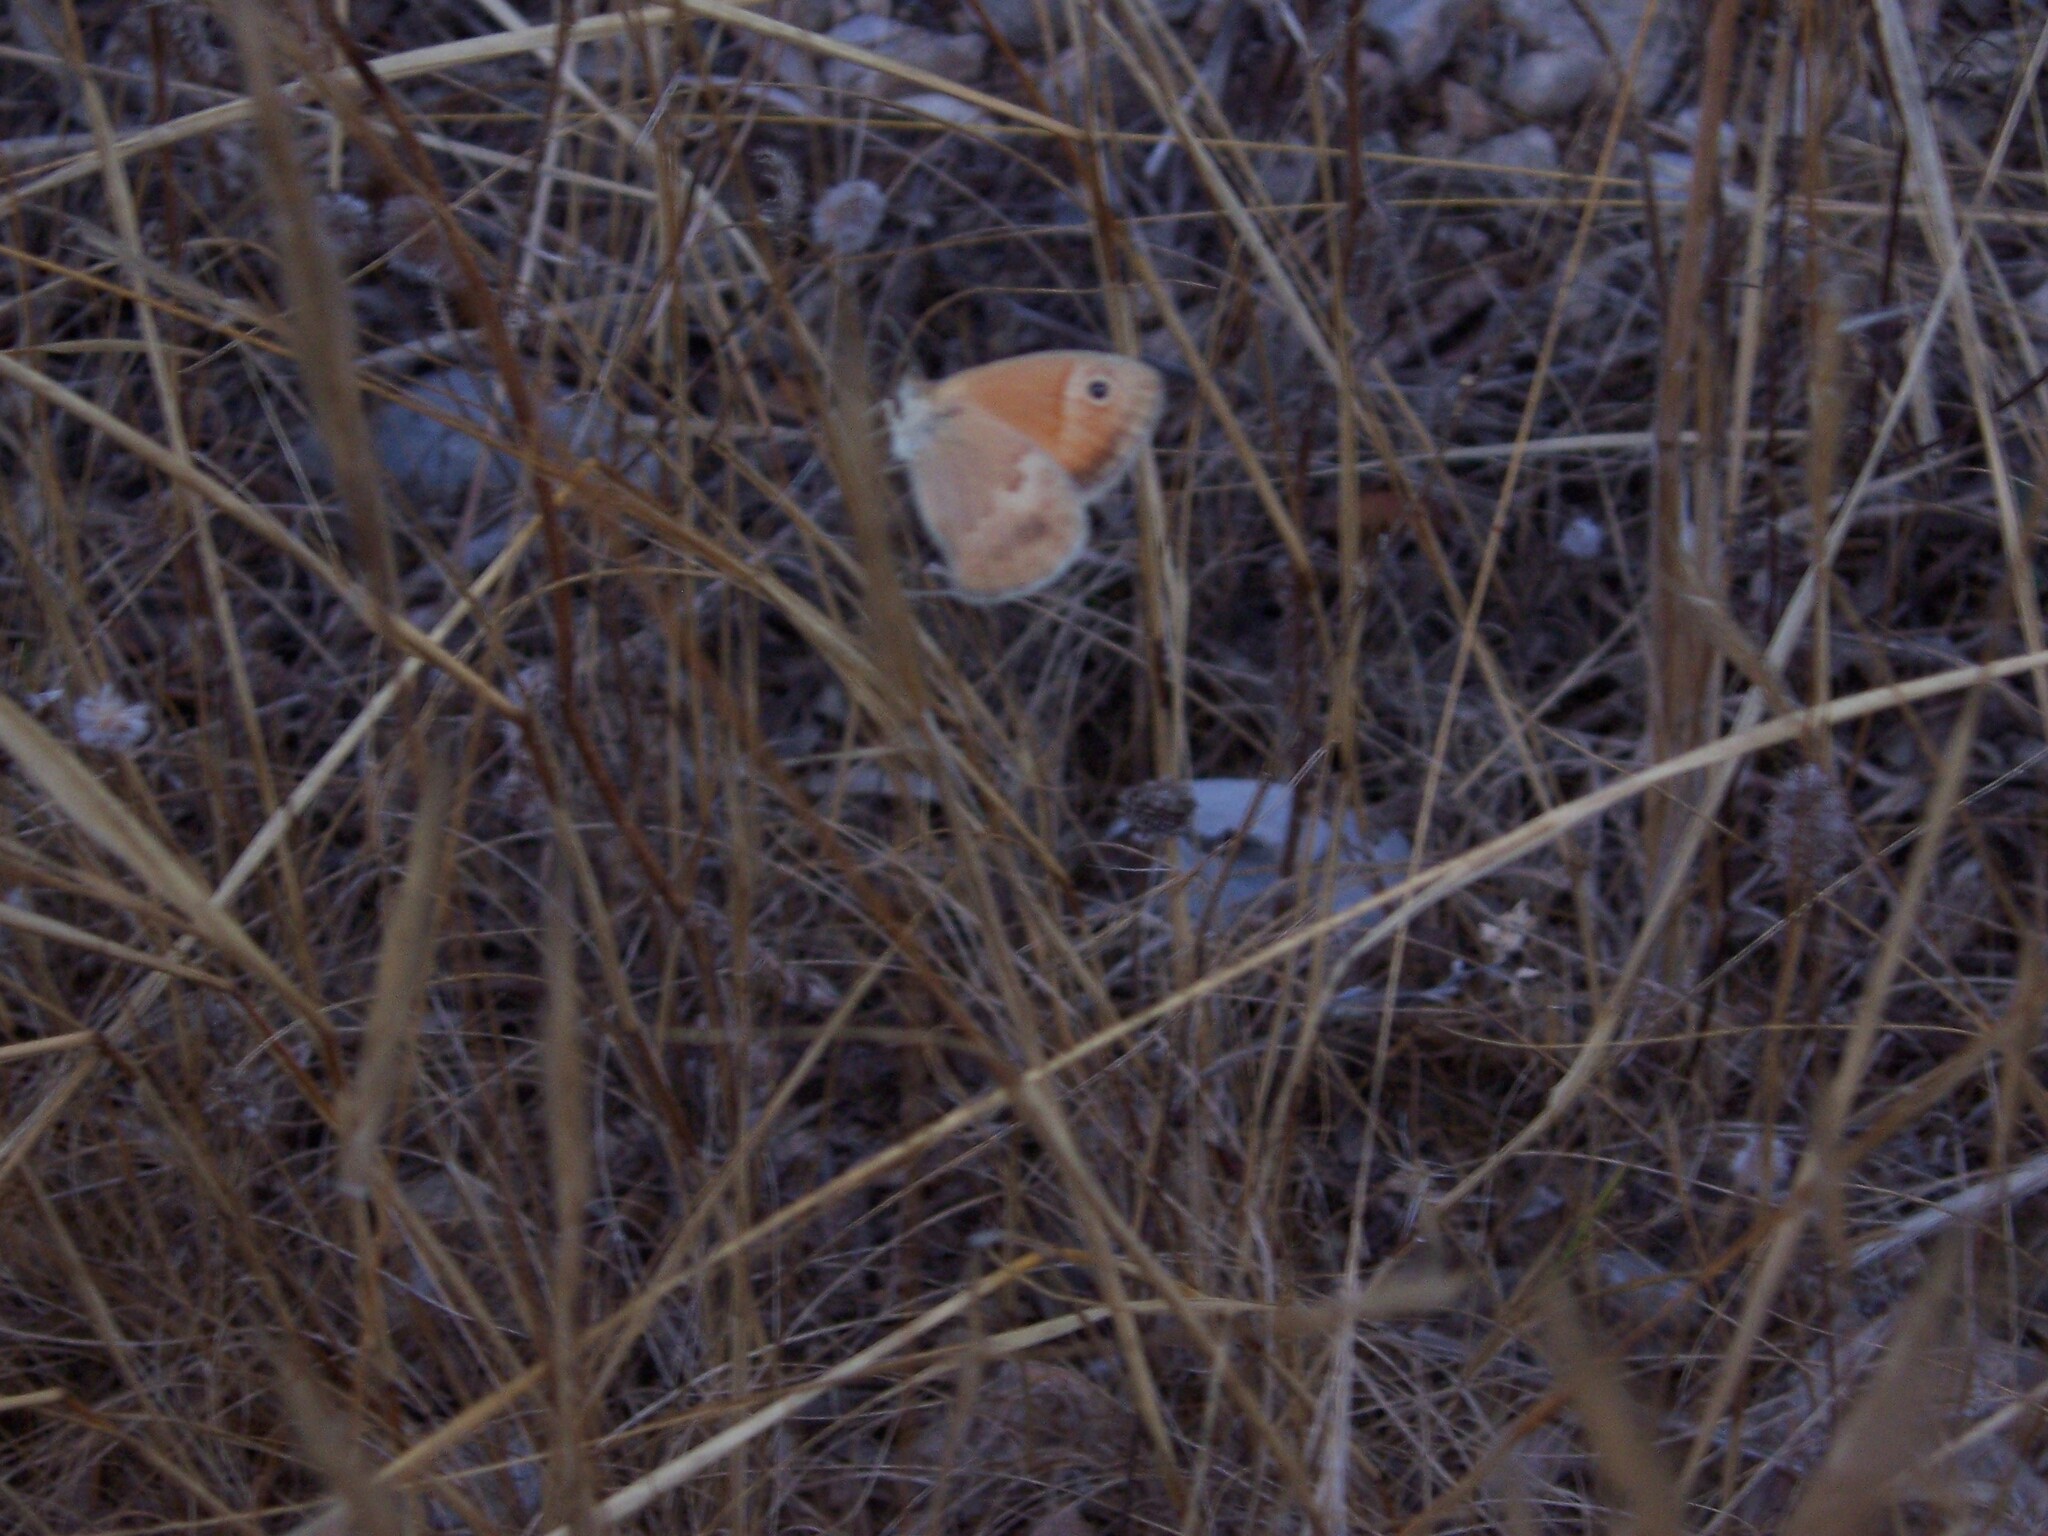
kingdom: Animalia
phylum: Arthropoda
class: Insecta
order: Lepidoptera
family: Nymphalidae
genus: Coenonympha
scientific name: Coenonympha pamphilus
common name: Small heath
